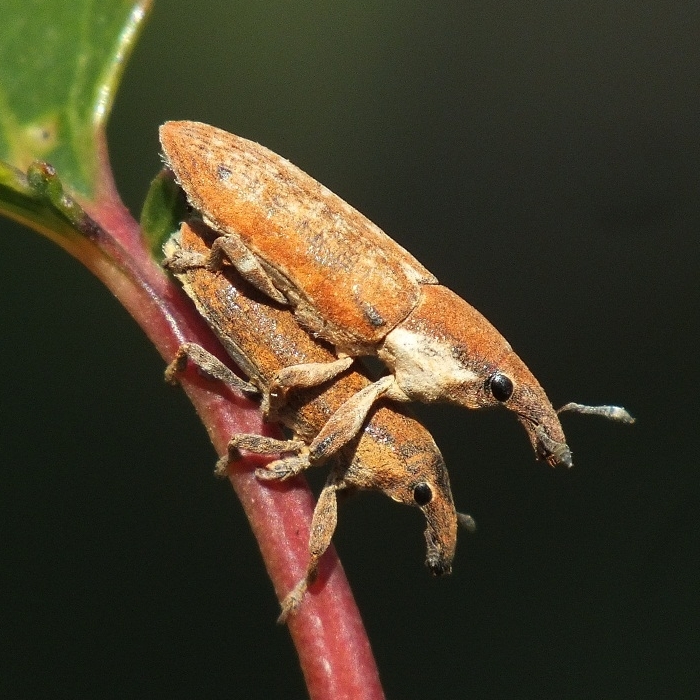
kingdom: Animalia
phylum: Arthropoda
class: Insecta
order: Coleoptera
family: Curculionidae
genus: Lixus
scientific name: Lixus cinerascens
